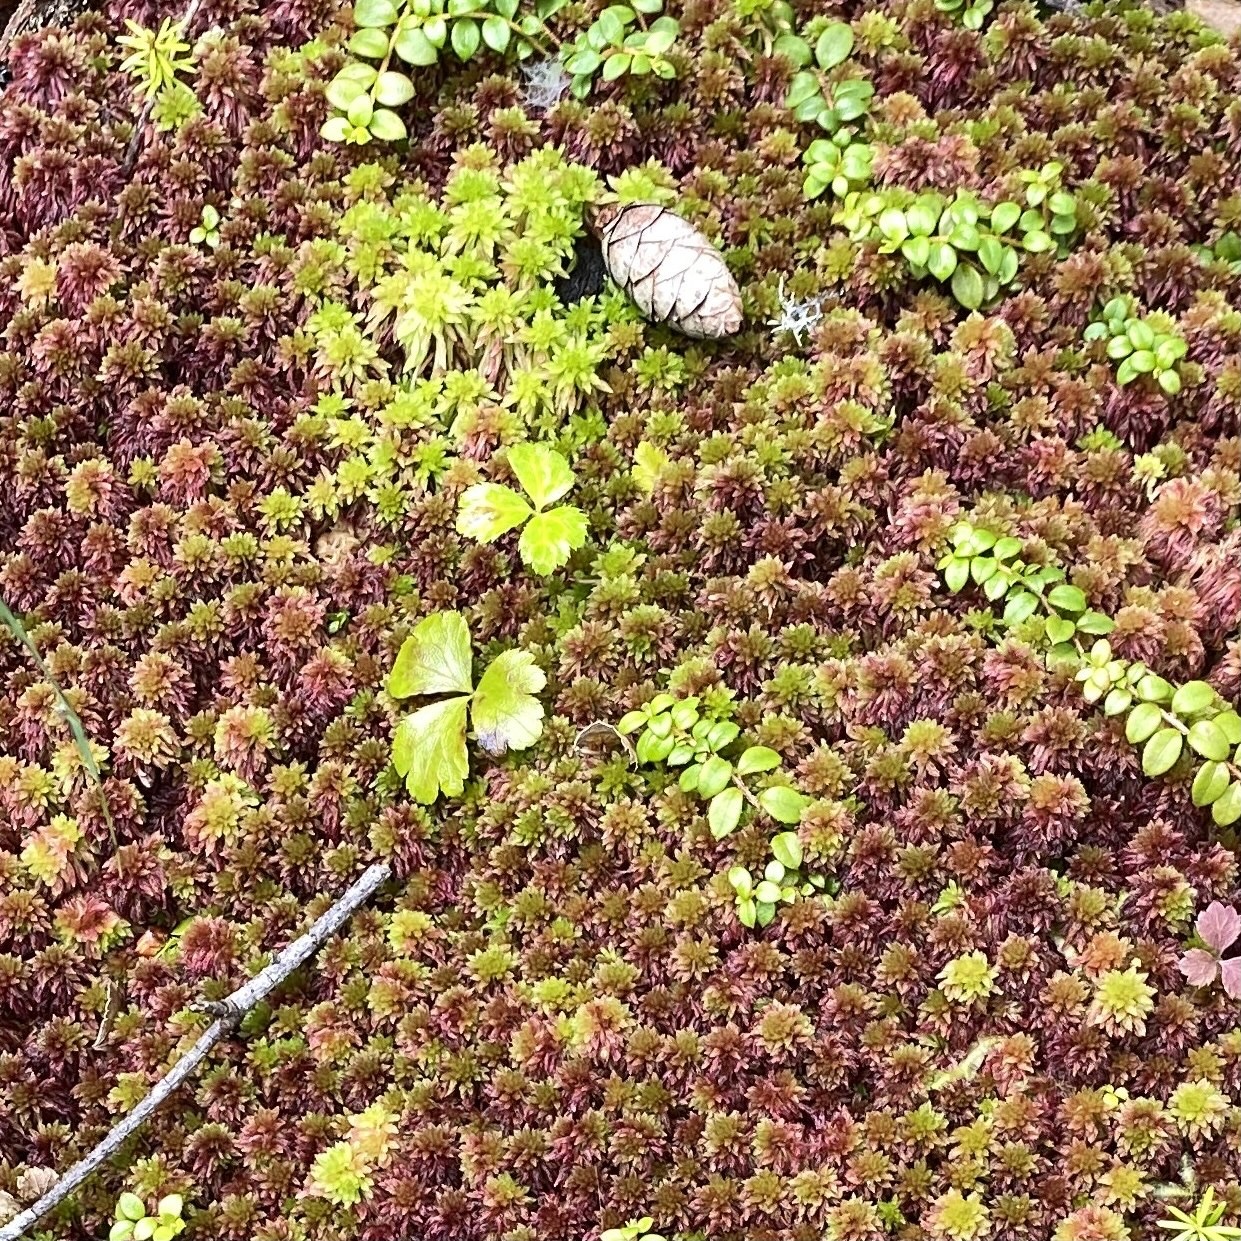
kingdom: Plantae
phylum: Tracheophyta
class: Magnoliopsida
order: Ranunculales
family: Ranunculaceae
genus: Coptis
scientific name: Coptis trifolia
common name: Canker-root
